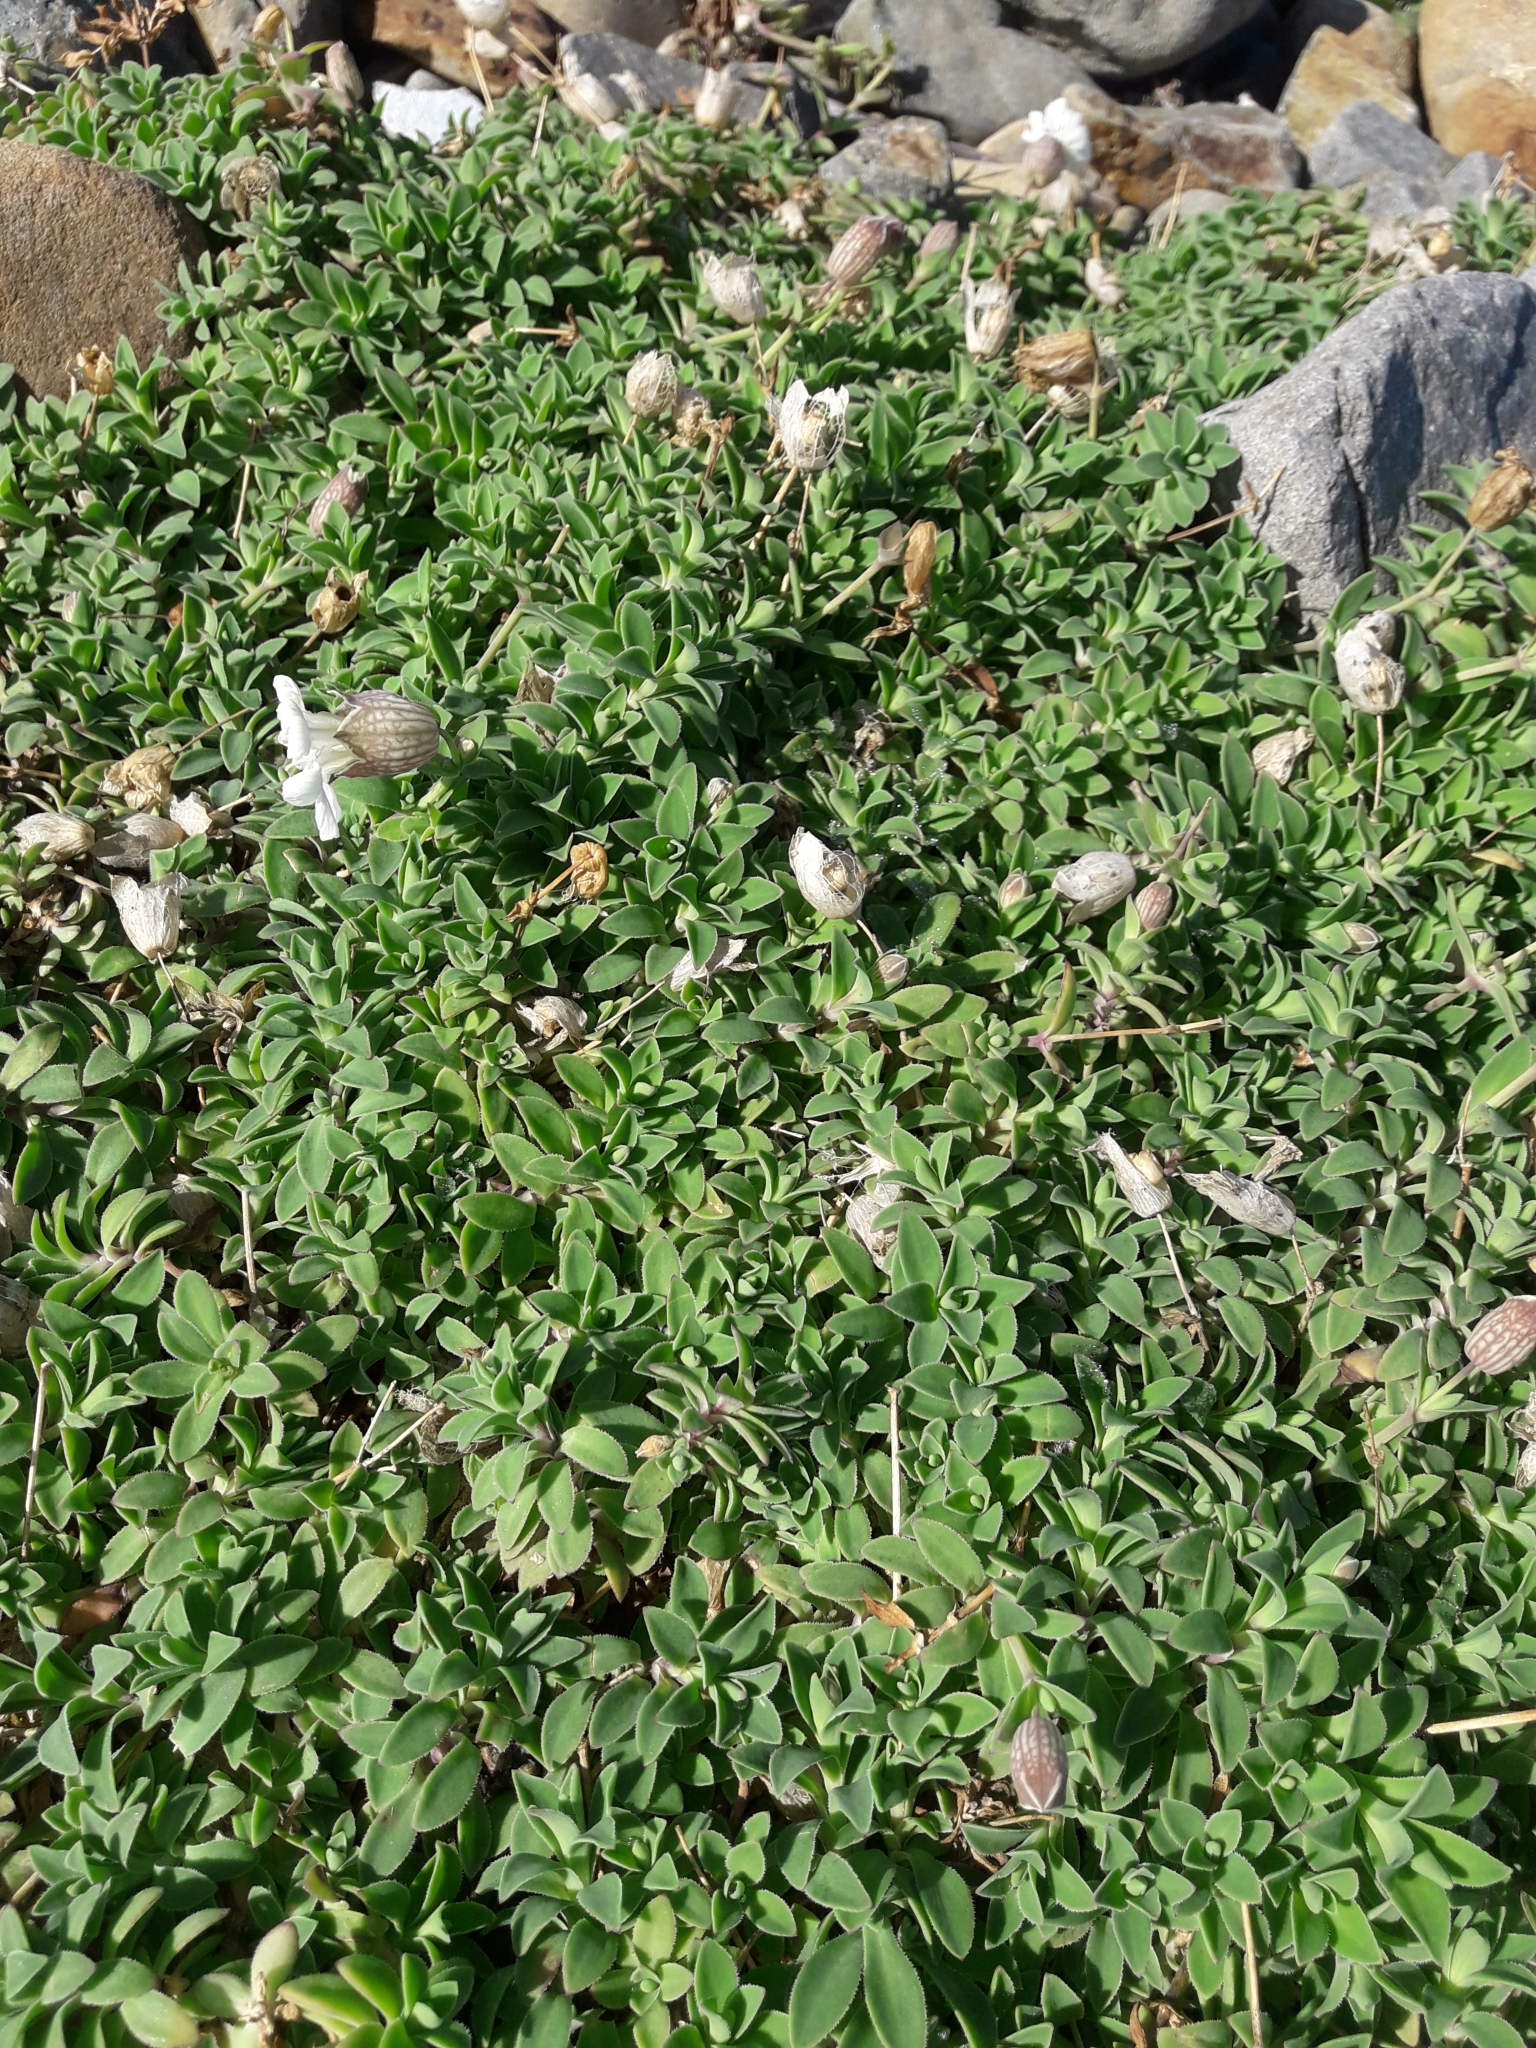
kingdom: Plantae
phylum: Tracheophyta
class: Magnoliopsida
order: Caryophyllales
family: Caryophyllaceae
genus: Silene
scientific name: Silene uniflora
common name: Sea campion
